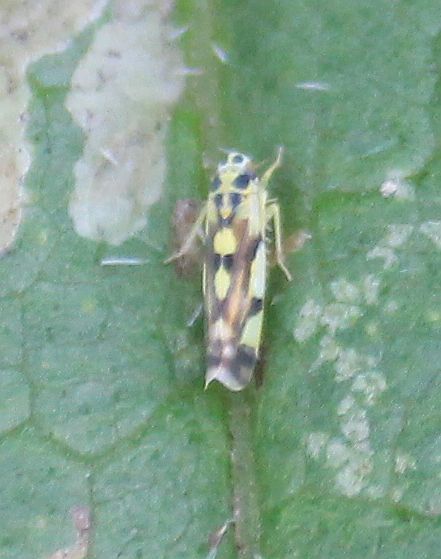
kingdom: Animalia
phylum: Arthropoda
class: Insecta
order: Hemiptera
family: Cicadellidae
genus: Eupteryx
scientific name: Eupteryx aurata
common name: Leafhopper
